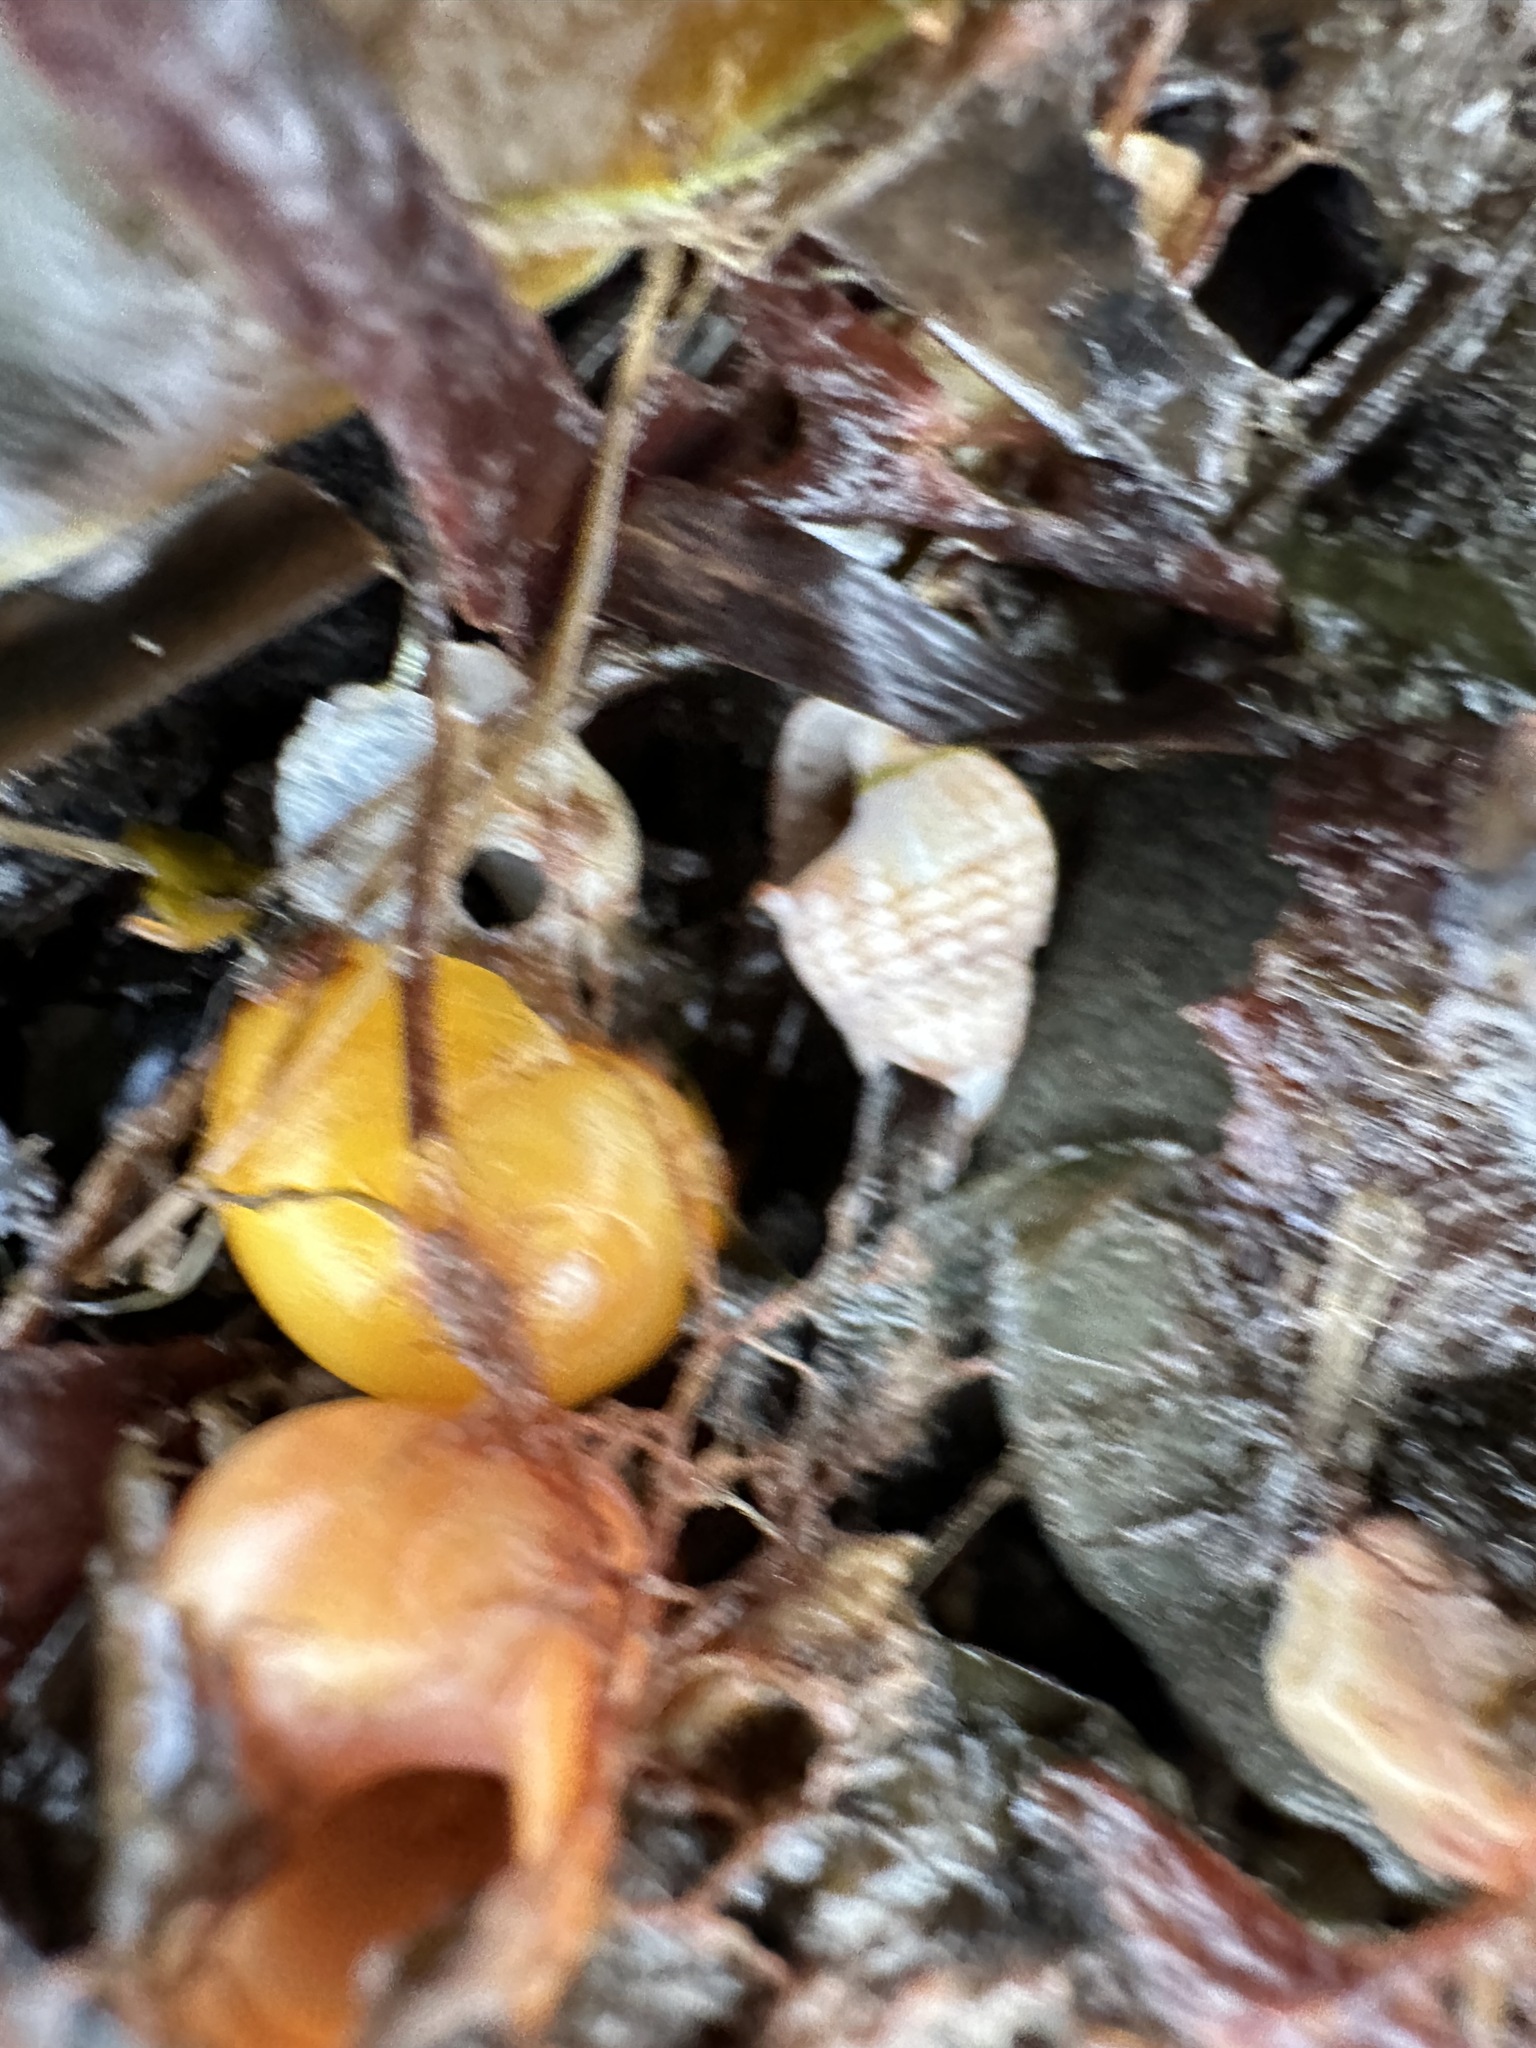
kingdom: Animalia
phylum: Mollusca
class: Gastropoda
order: Neogastropoda
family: Nassariidae
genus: Ilyanassa
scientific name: Ilyanassa trivittata
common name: Three-line mudsnail
